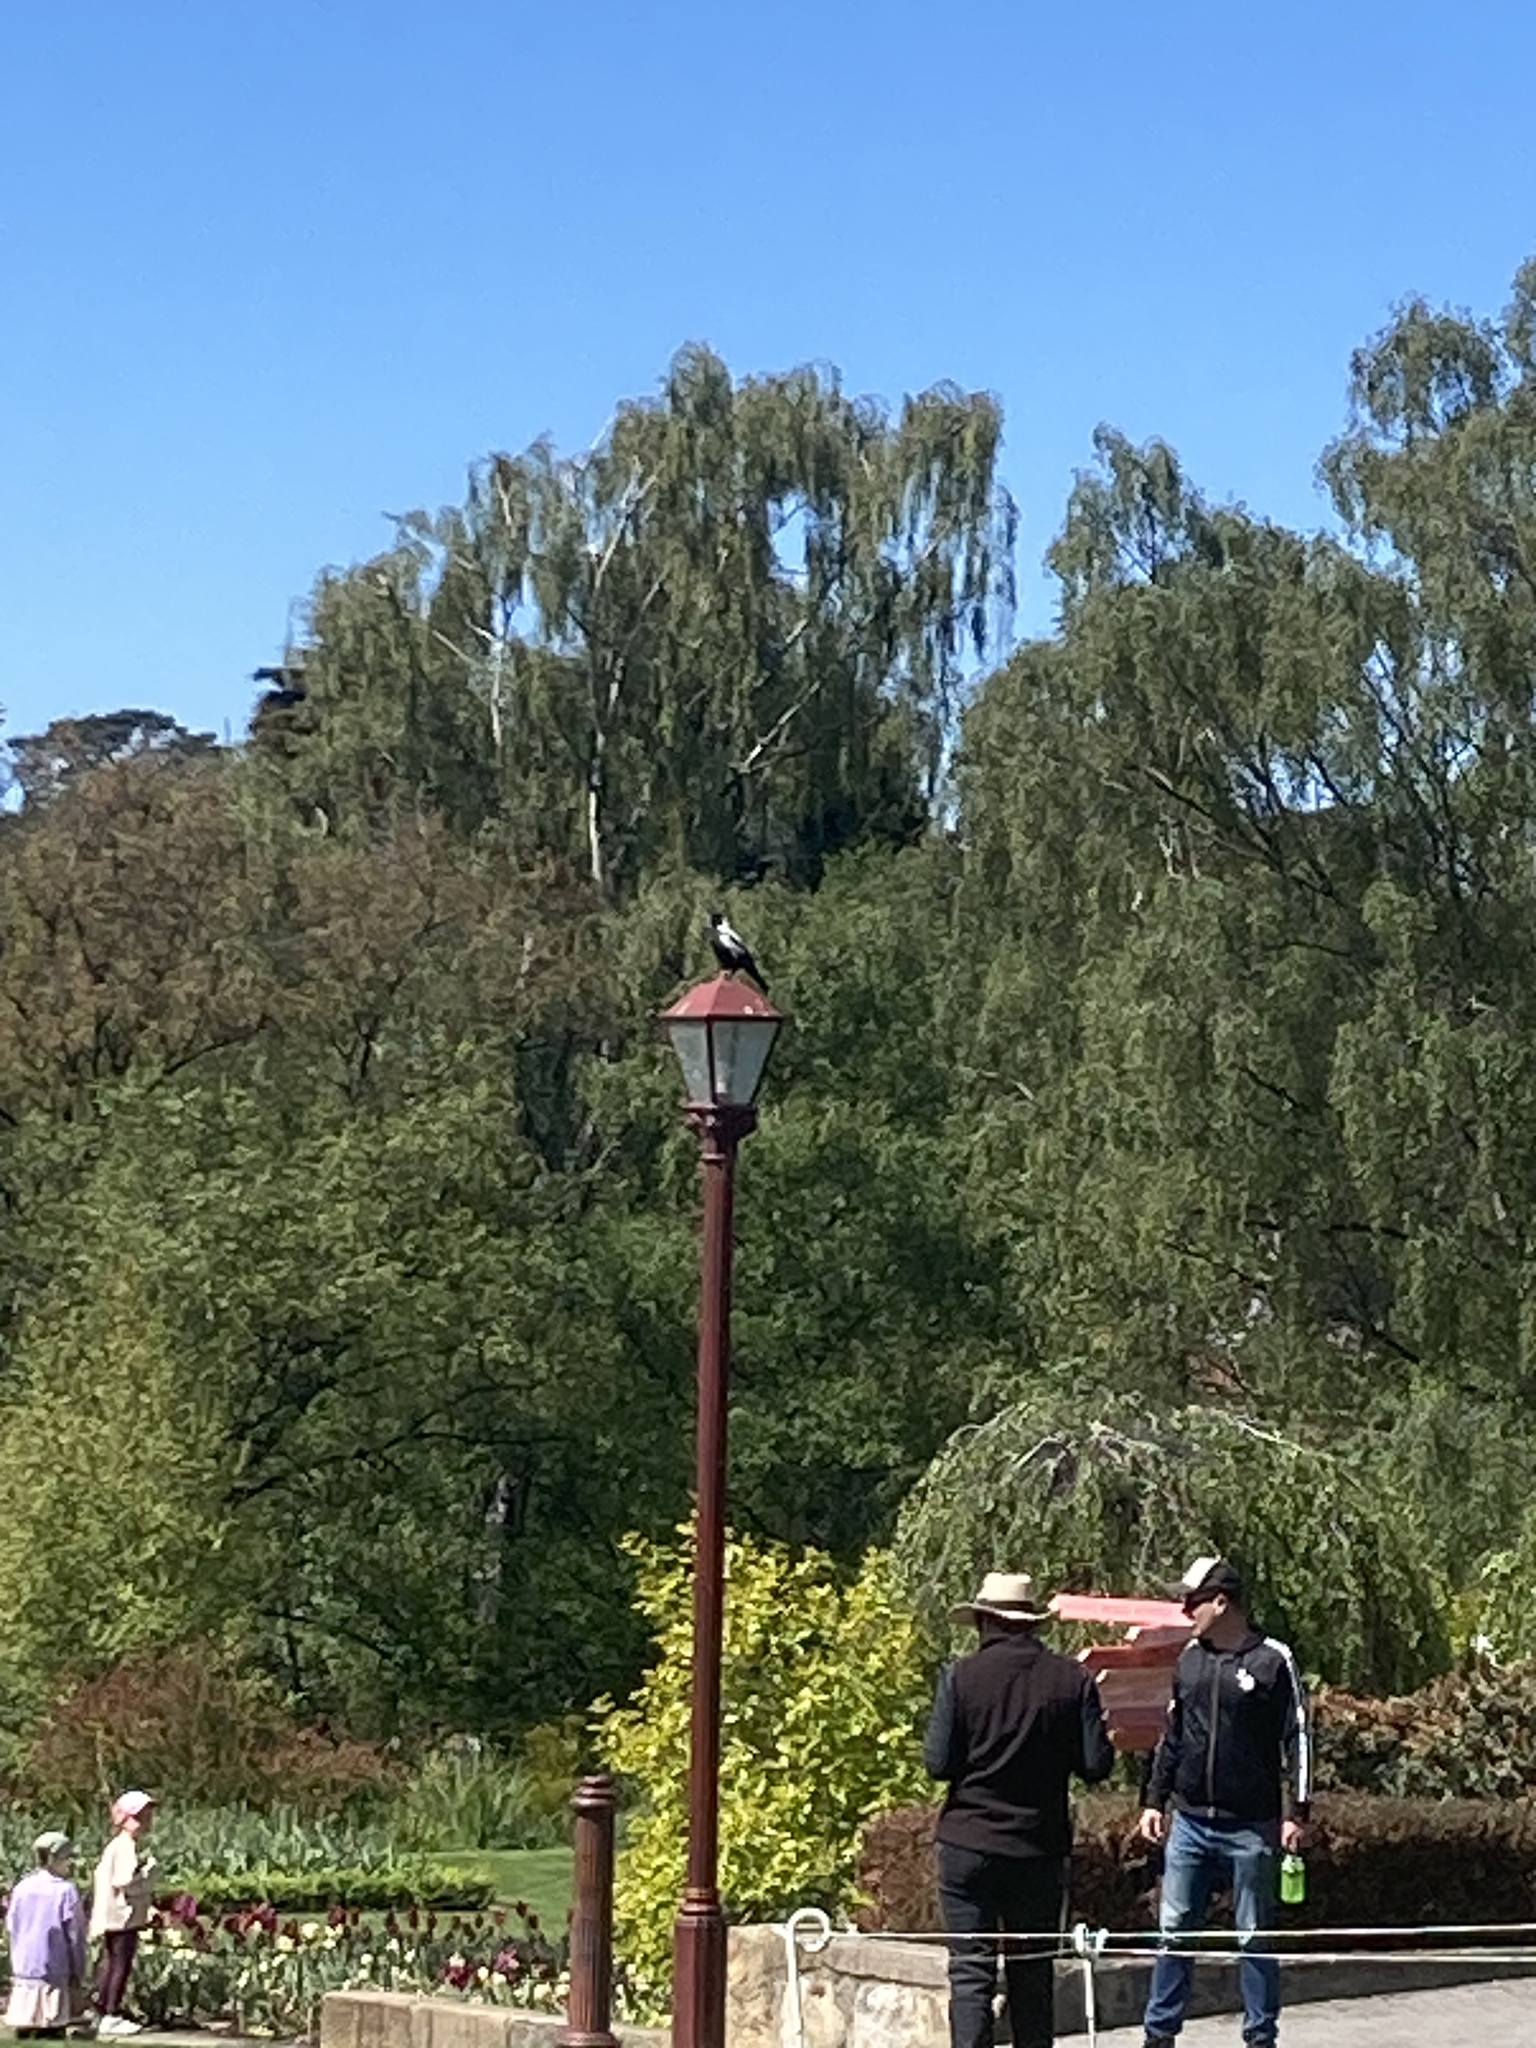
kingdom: Animalia
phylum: Chordata
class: Aves
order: Passeriformes
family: Cracticidae
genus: Gymnorhina
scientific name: Gymnorhina tibicen
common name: Australian magpie
